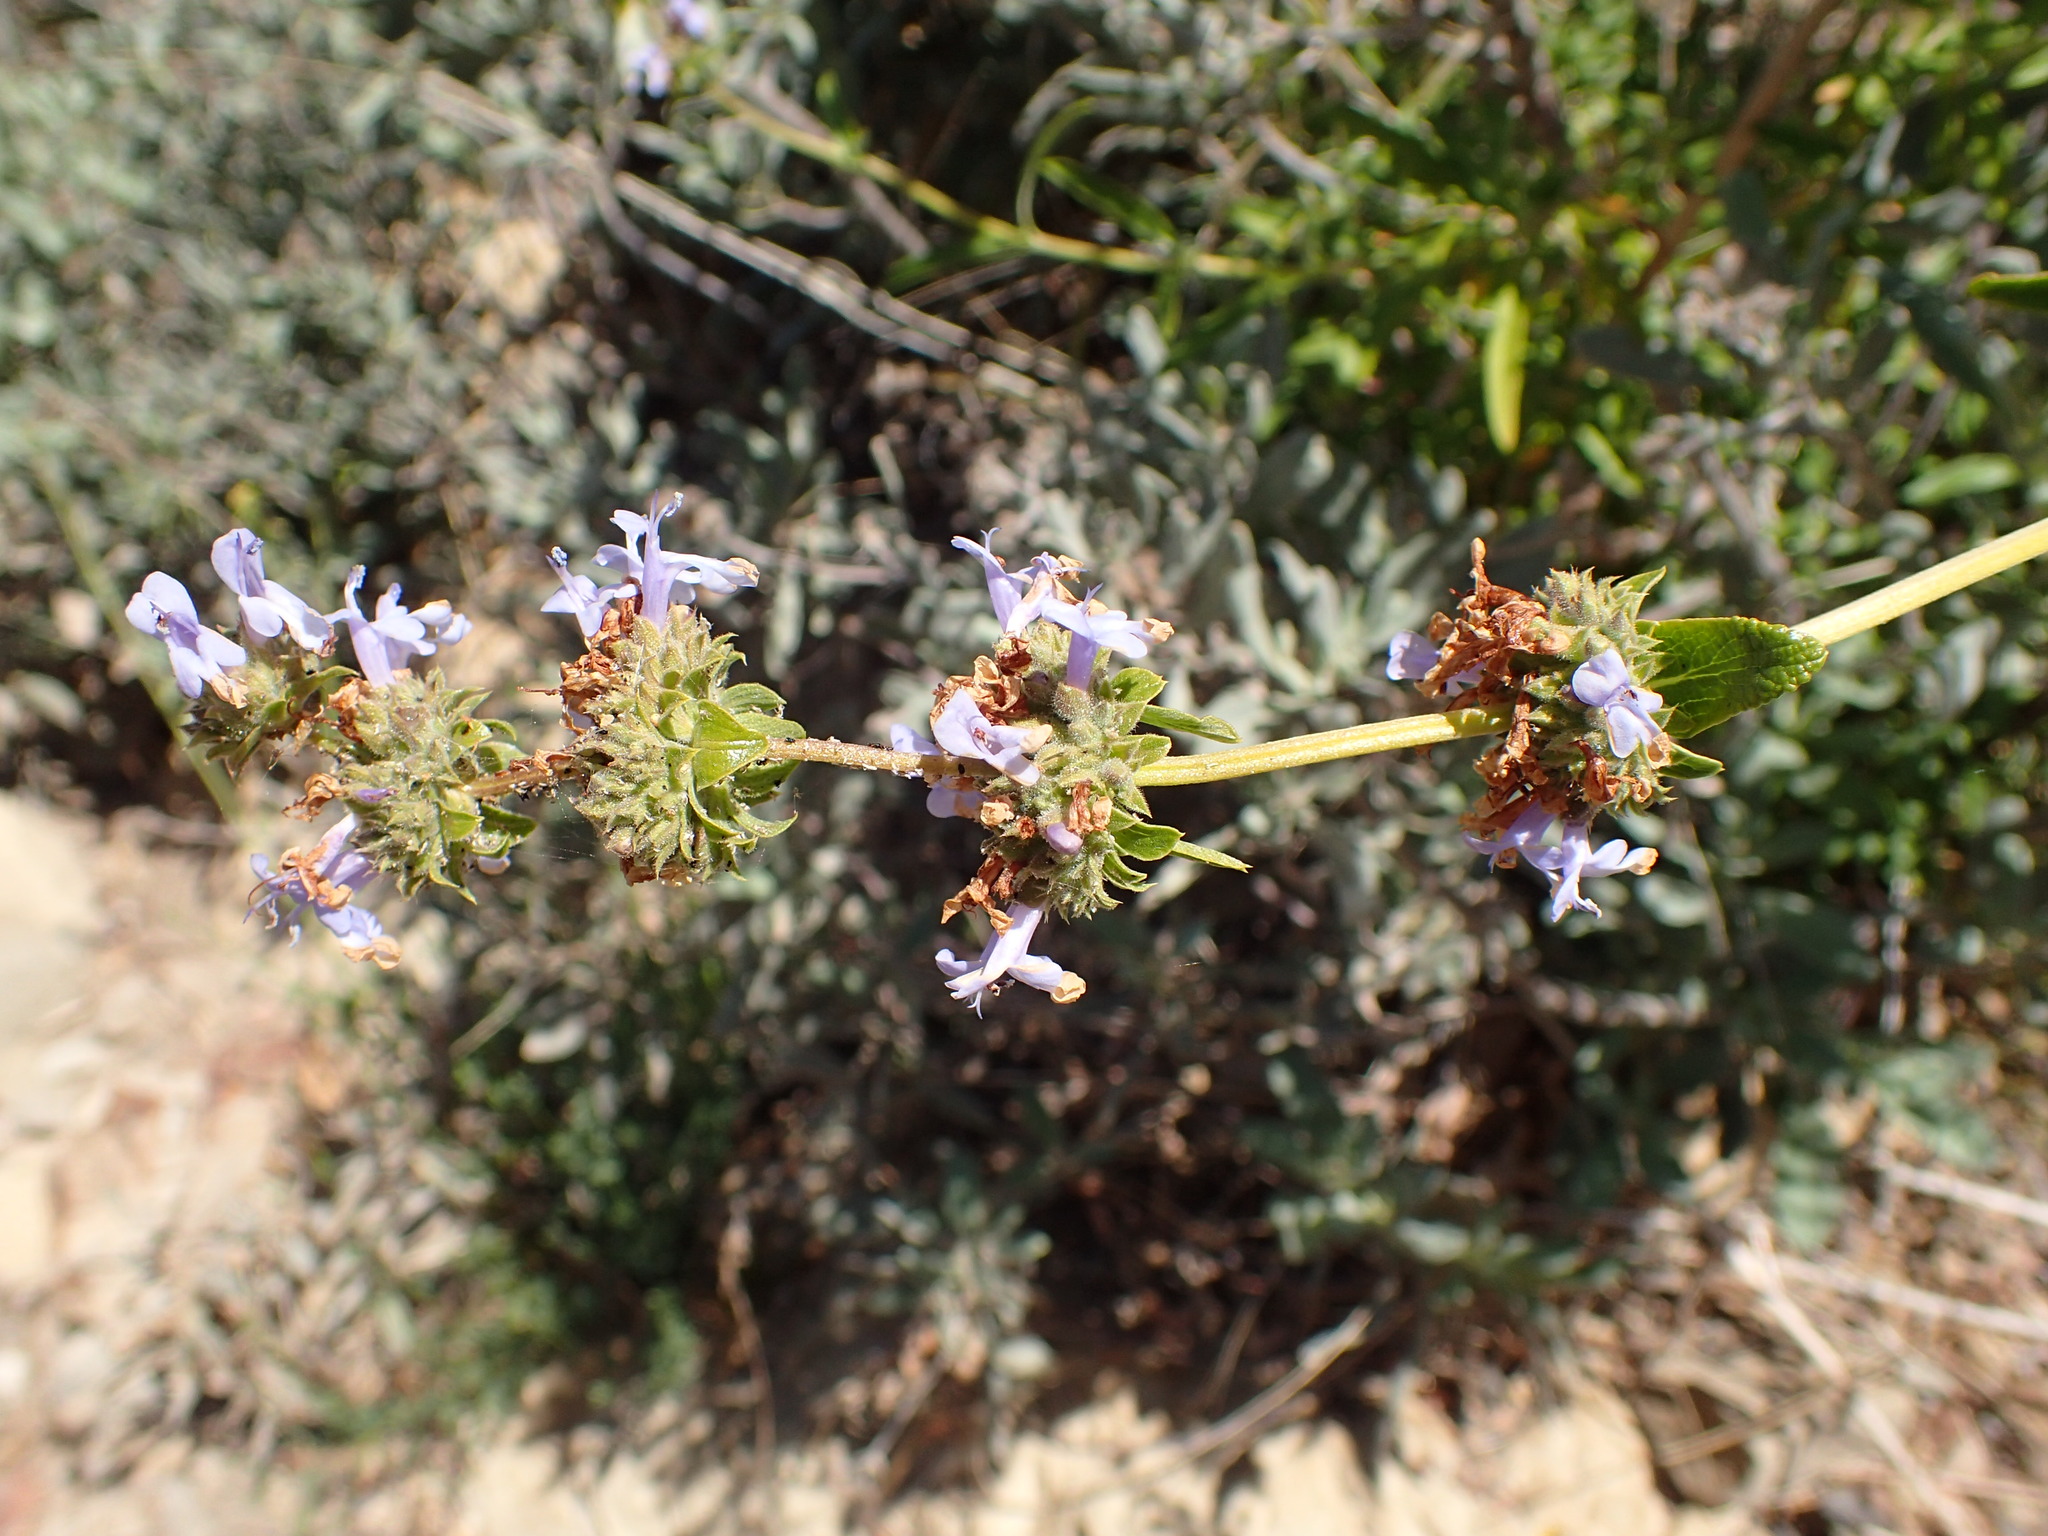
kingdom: Plantae
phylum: Tracheophyta
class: Magnoliopsida
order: Lamiales
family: Lamiaceae
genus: Salvia
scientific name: Salvia mellifera
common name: Black sage
